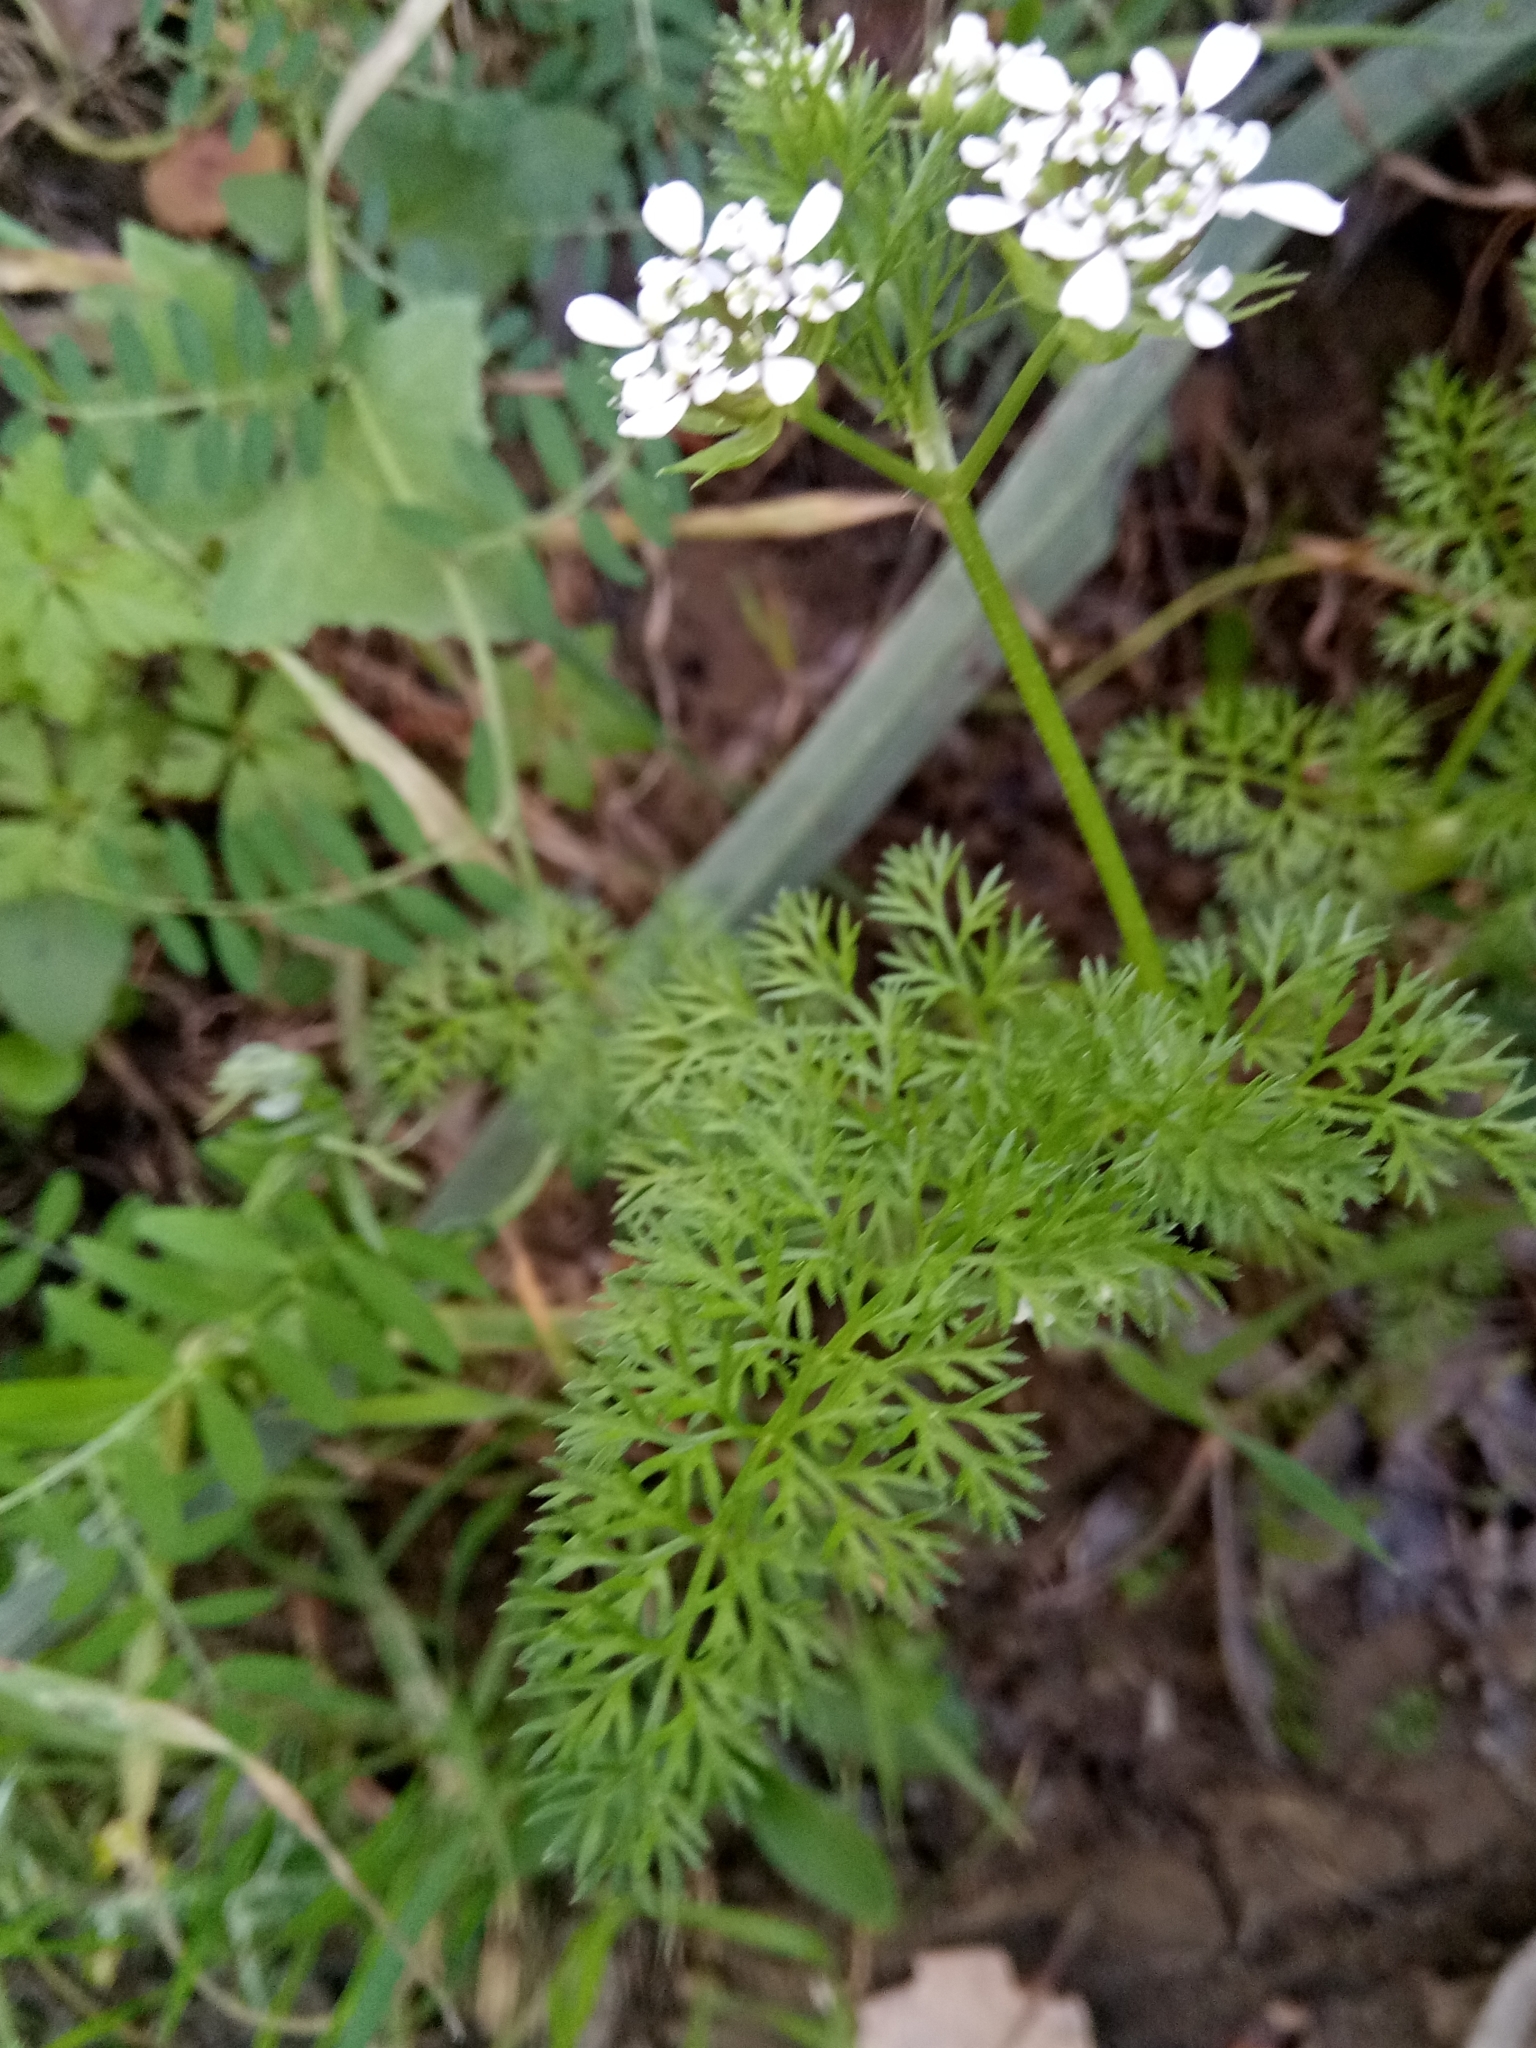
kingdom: Plantae
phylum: Tracheophyta
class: Magnoliopsida
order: Apiales
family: Apiaceae
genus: Scandix
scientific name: Scandix pecten-veneris
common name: Shepherd's-needle
